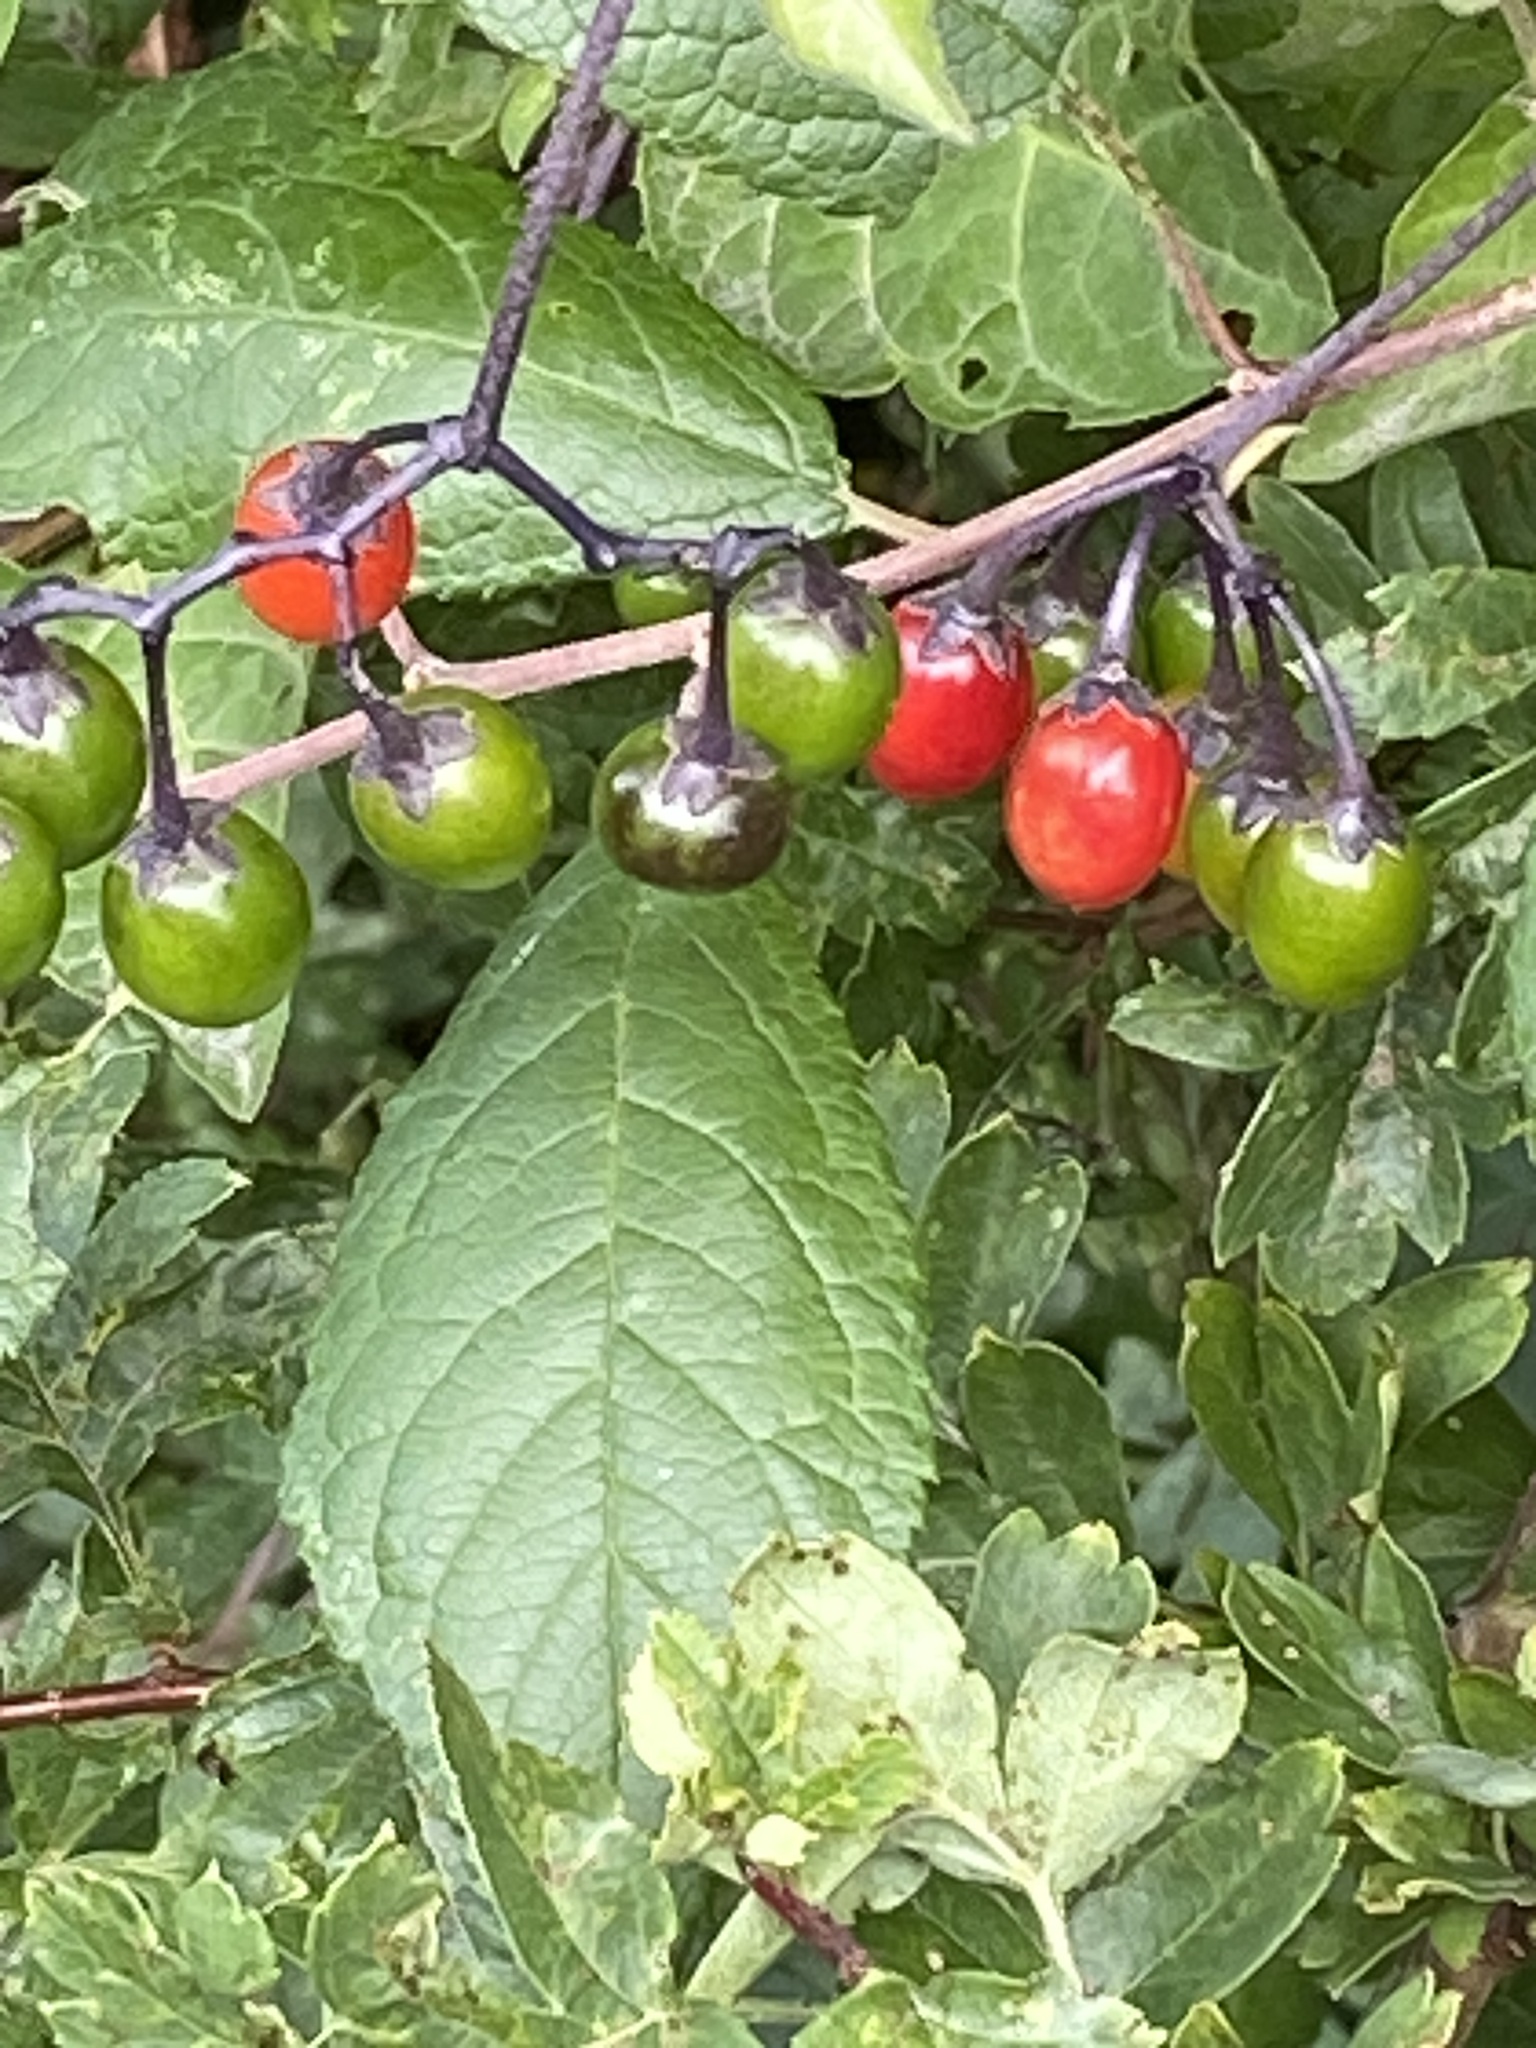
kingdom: Plantae
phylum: Tracheophyta
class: Magnoliopsida
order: Solanales
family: Solanaceae
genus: Solanum
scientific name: Solanum dulcamara
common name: Climbing nightshade
